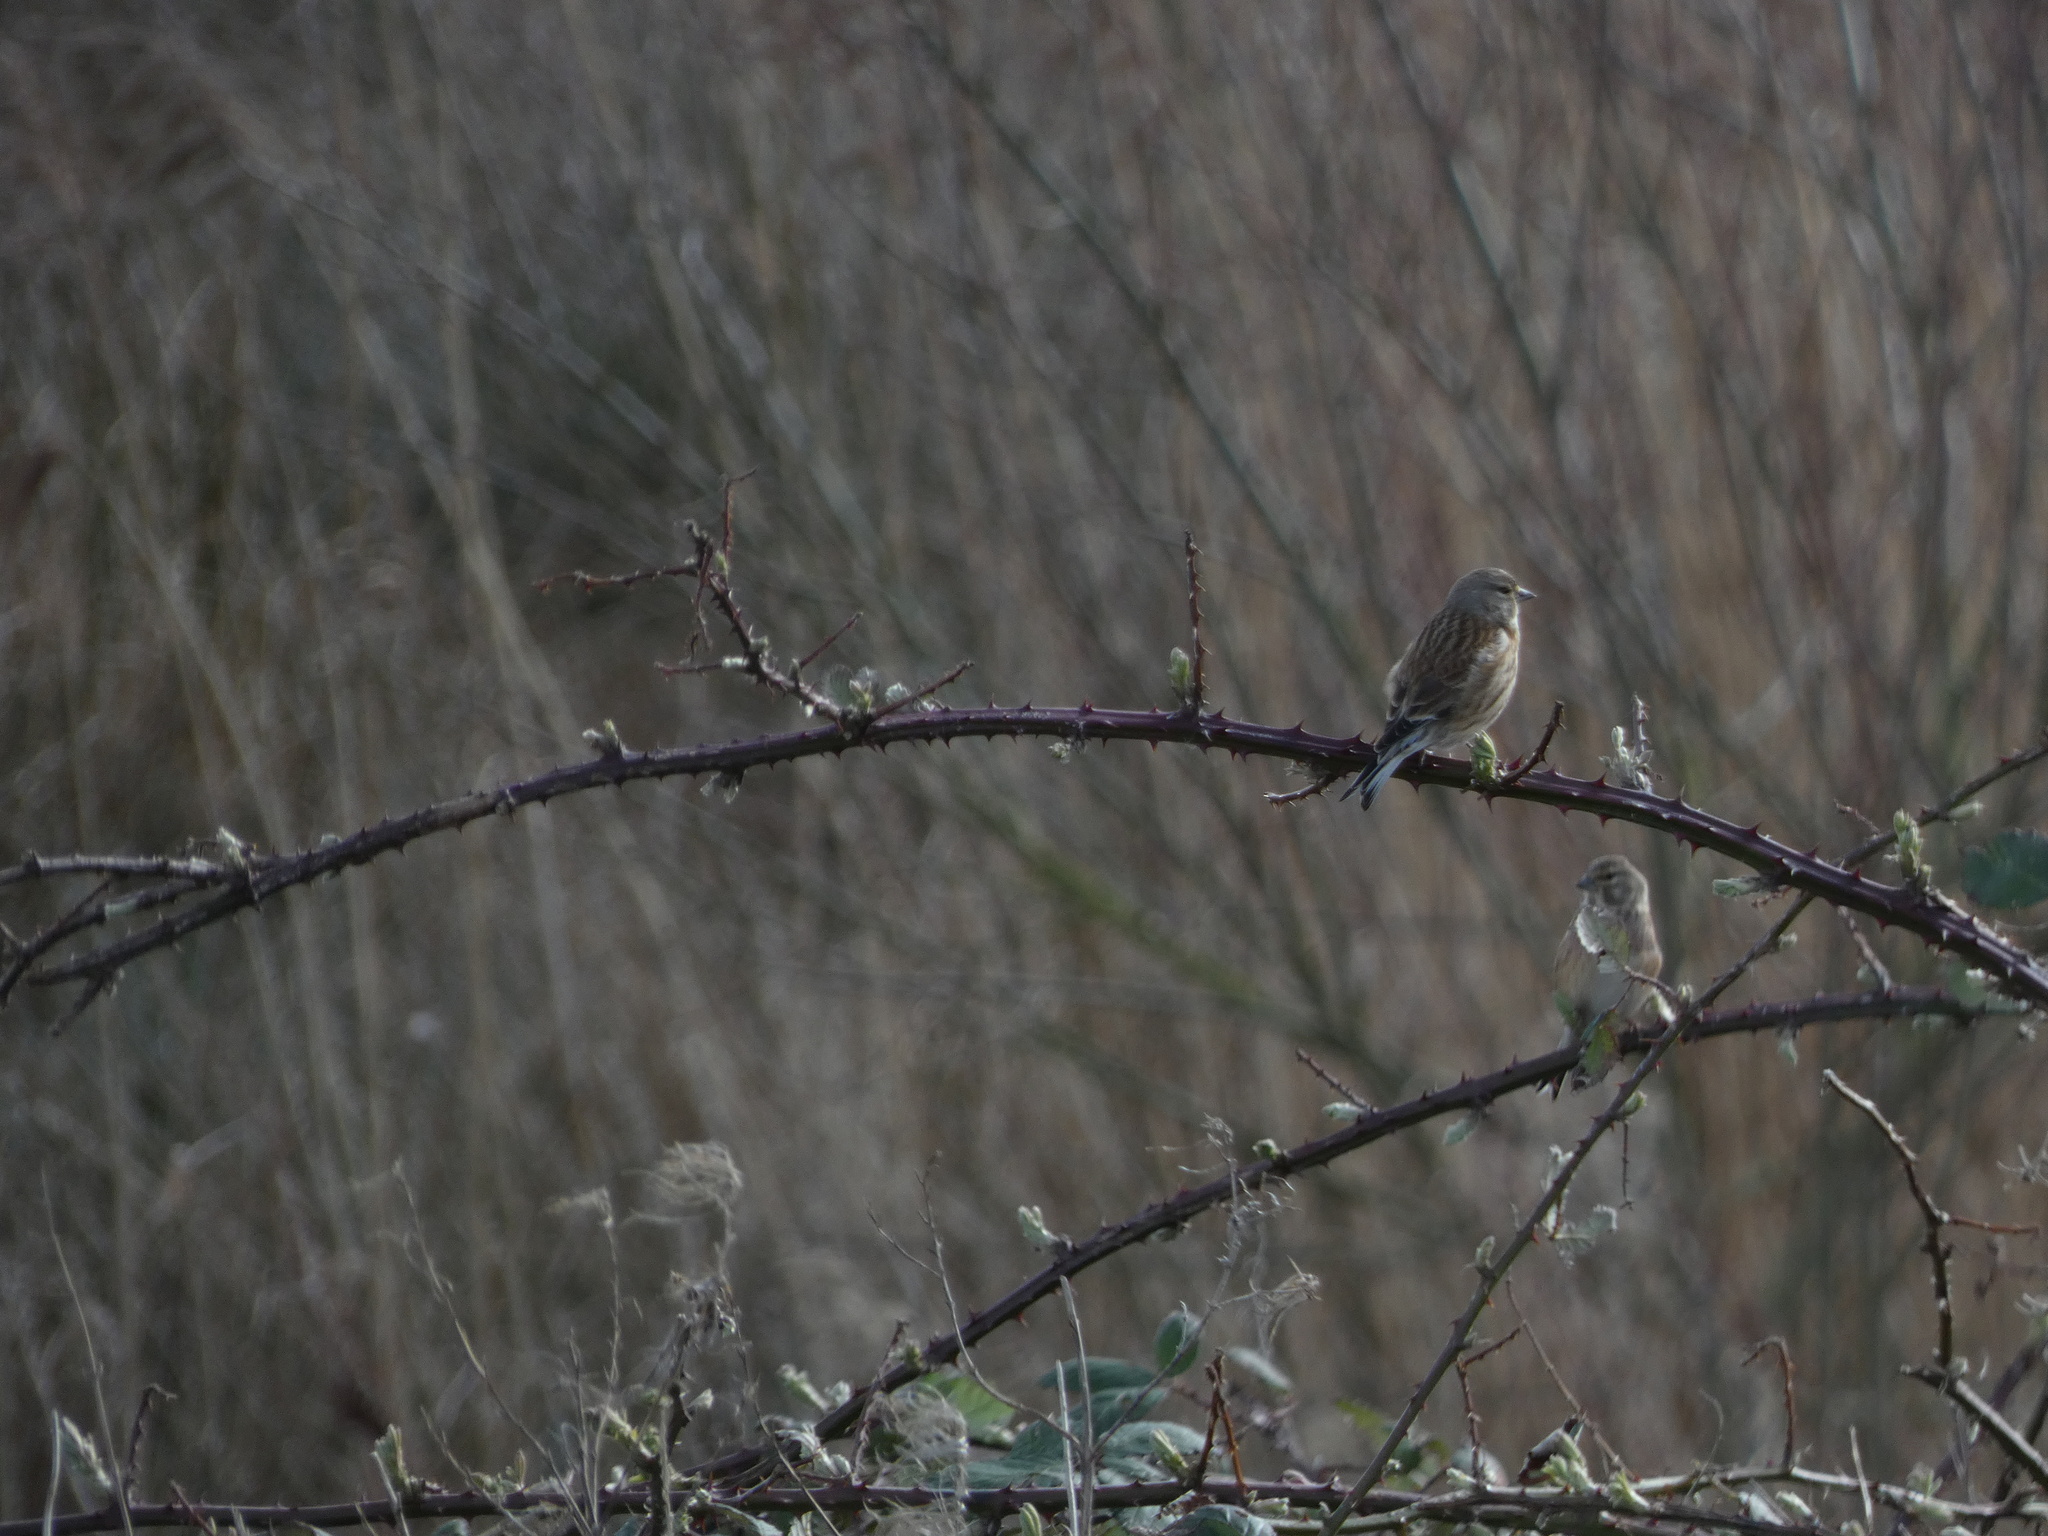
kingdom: Animalia
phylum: Chordata
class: Aves
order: Passeriformes
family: Fringillidae
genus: Linaria
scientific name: Linaria cannabina
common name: Common linnet
